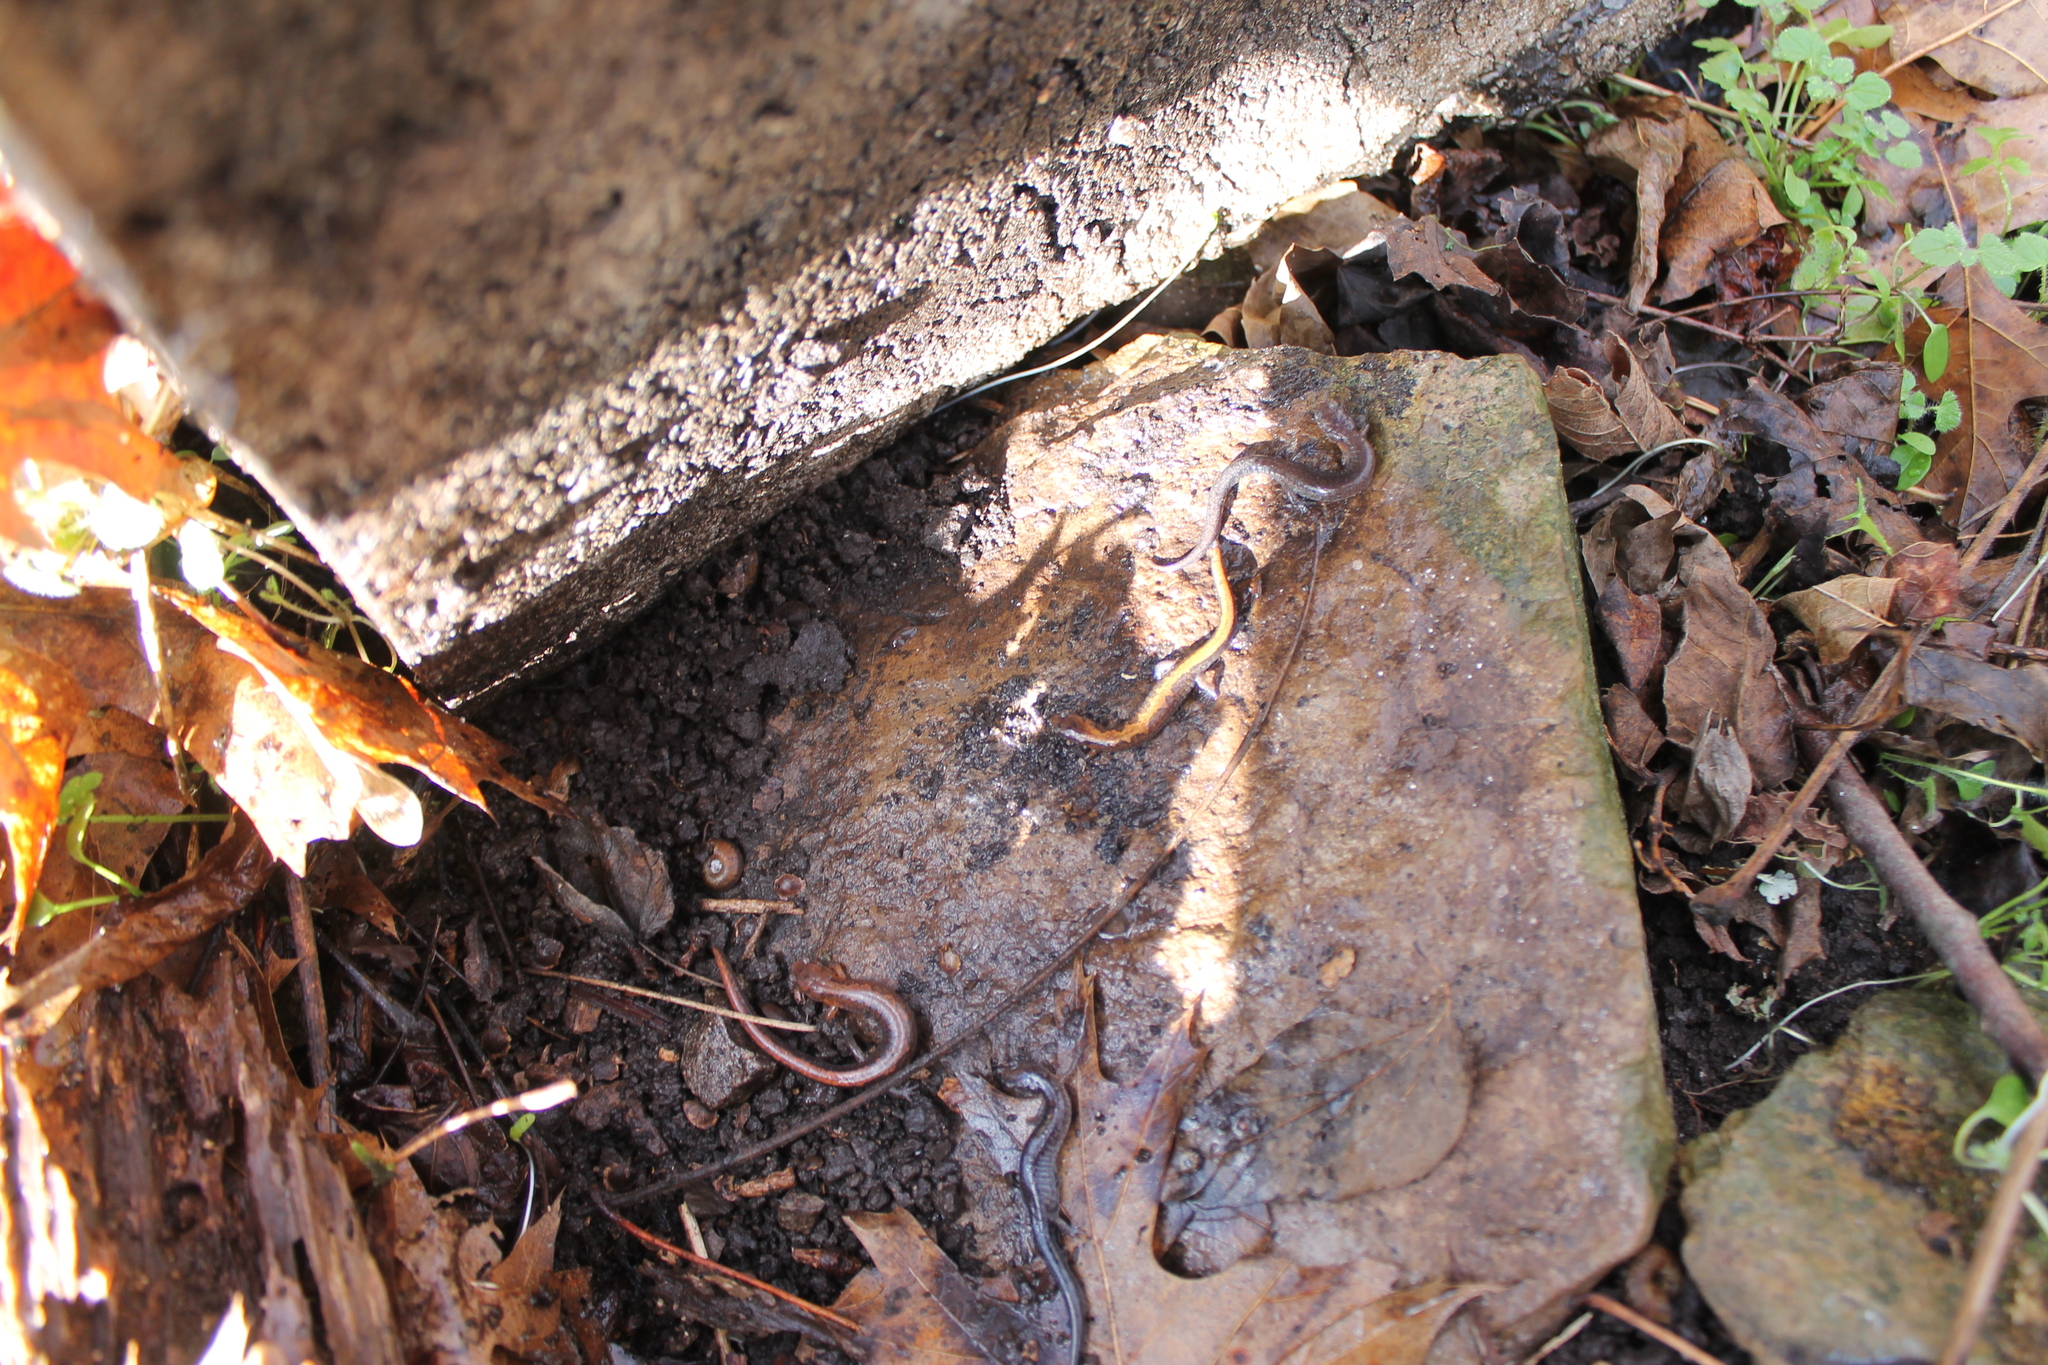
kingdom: Animalia
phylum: Chordata
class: Amphibia
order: Caudata
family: Plethodontidae
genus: Plethodon
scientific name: Plethodon dorsalis
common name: Northern zigzag salamander
